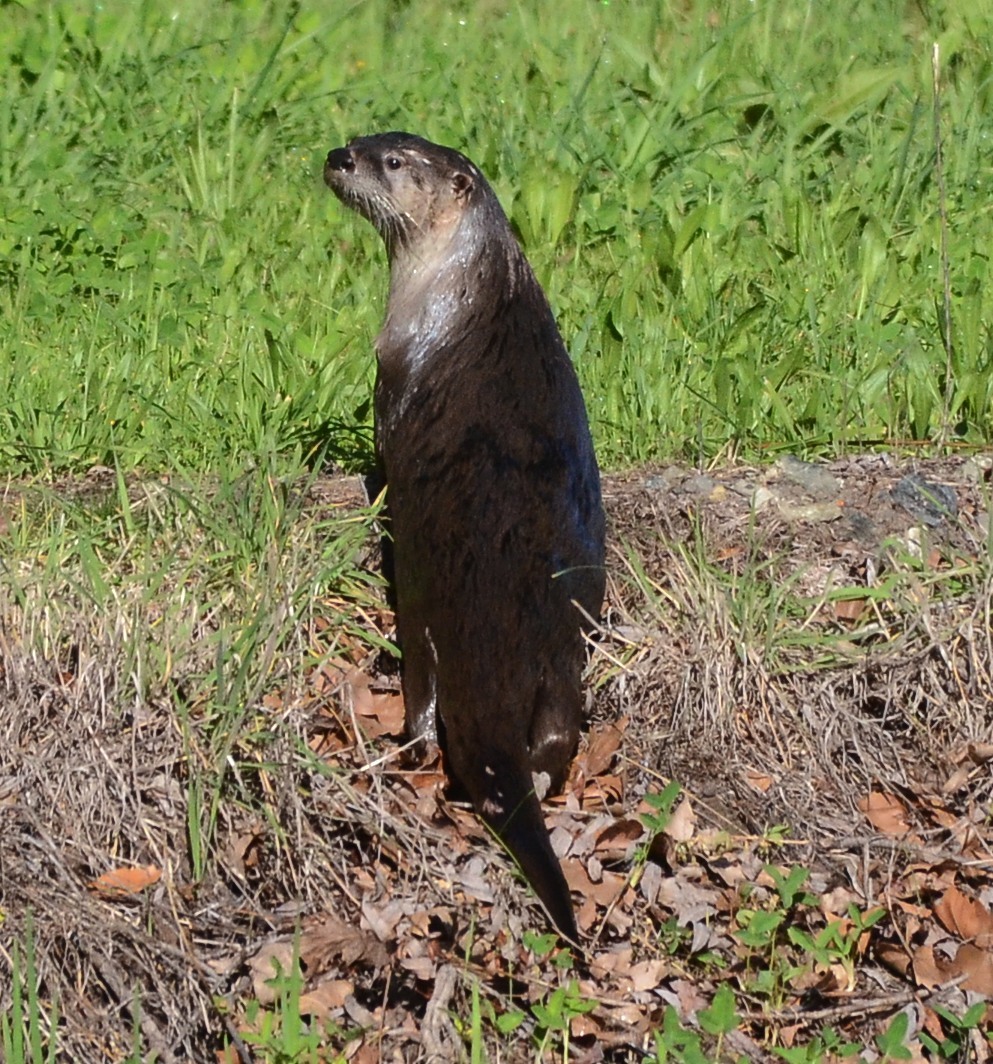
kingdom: Animalia
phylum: Chordata
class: Mammalia
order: Carnivora
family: Mustelidae
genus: Lontra
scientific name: Lontra canadensis
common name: North american river otter
